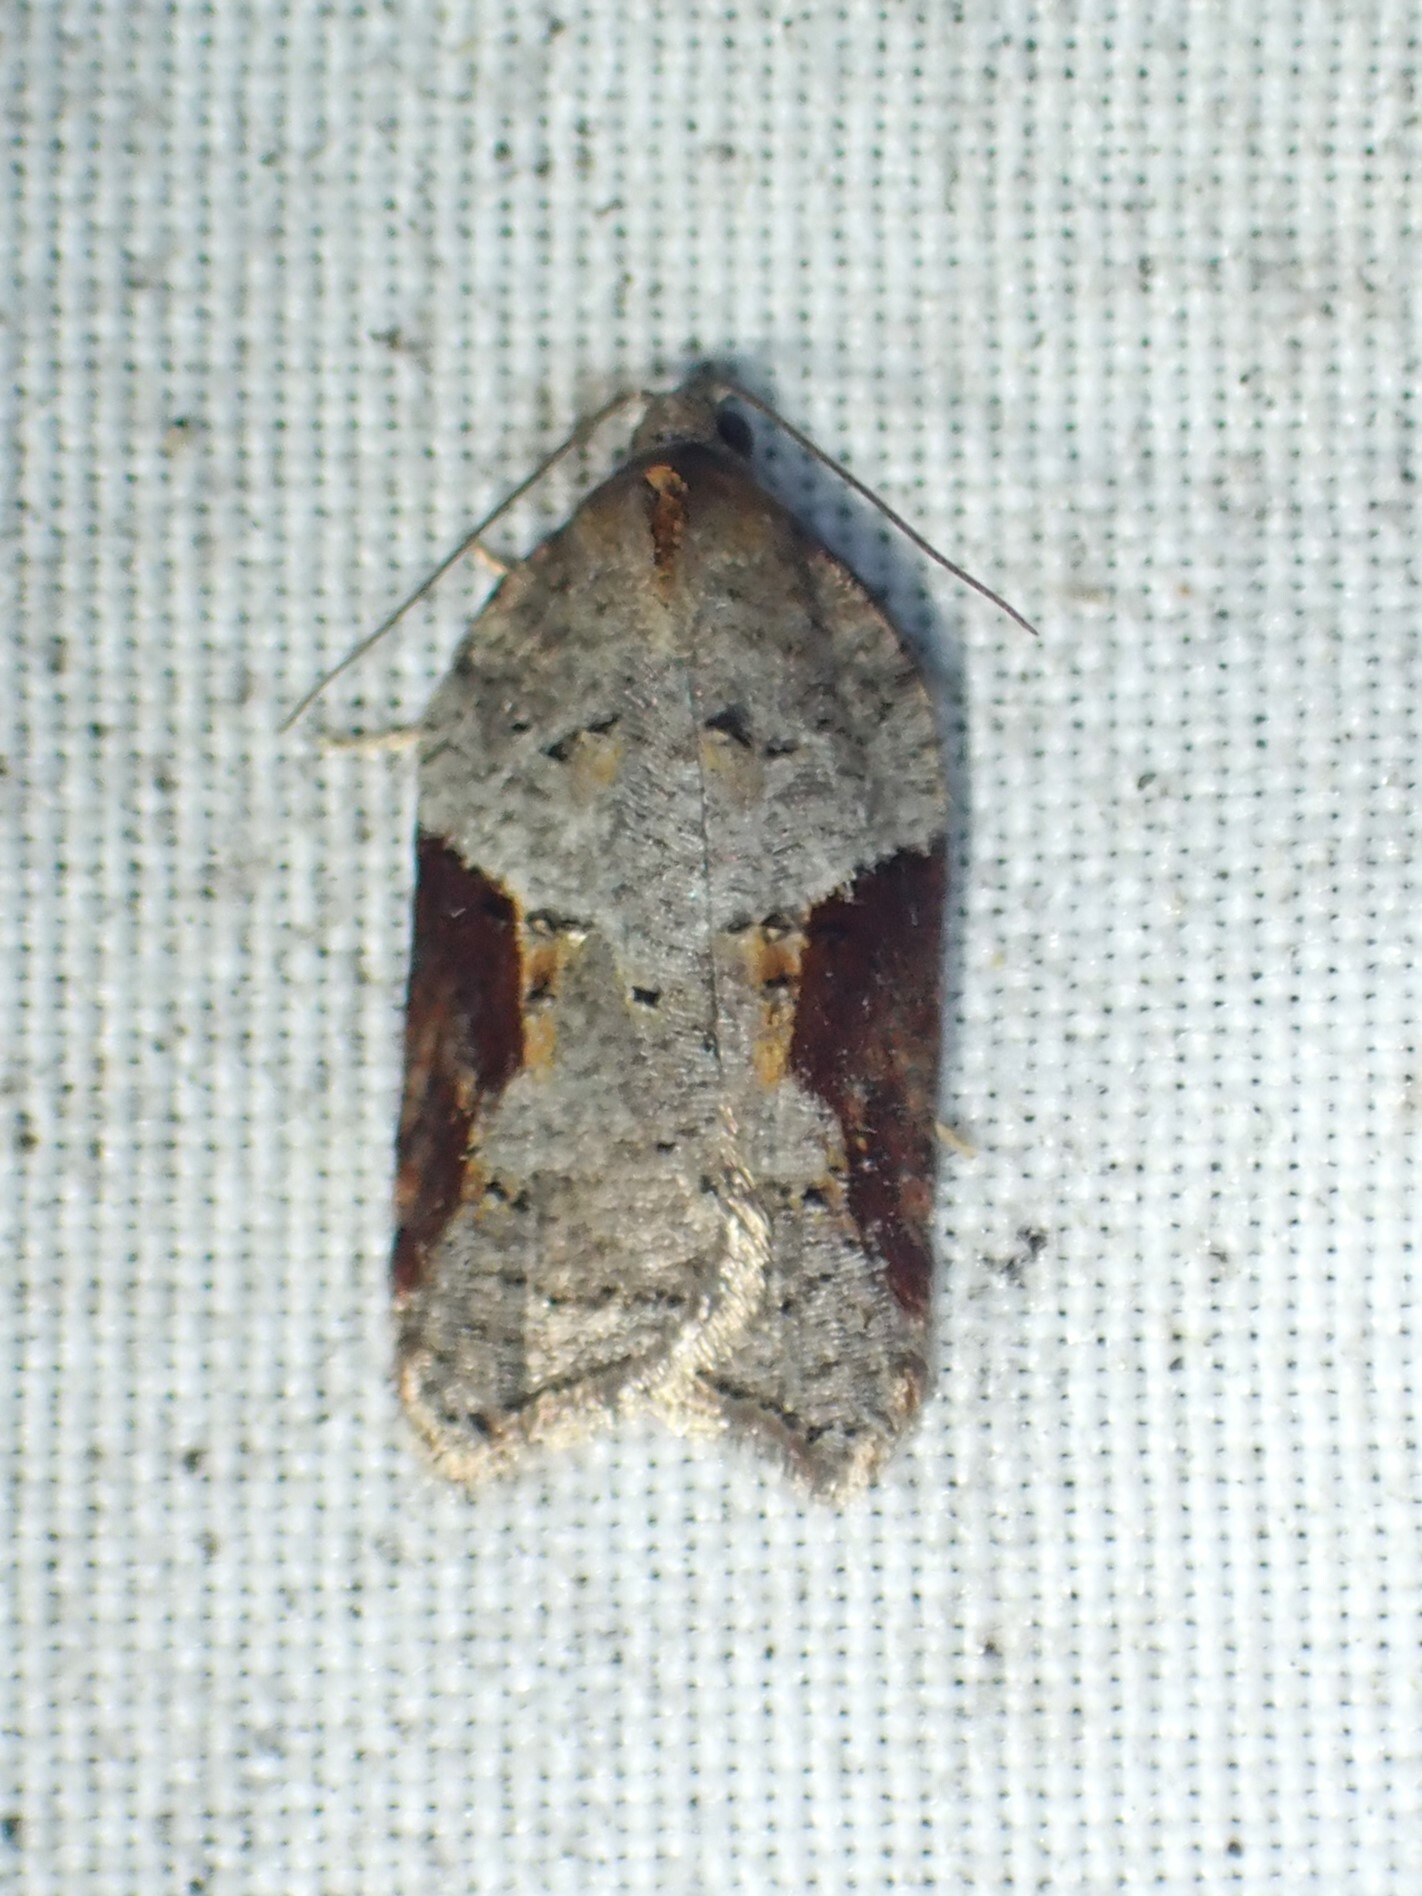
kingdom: Animalia
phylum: Arthropoda
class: Insecta
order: Lepidoptera
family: Tortricidae
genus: Acleris
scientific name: Acleris macdunnoughi
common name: Macdunnough's acleris
